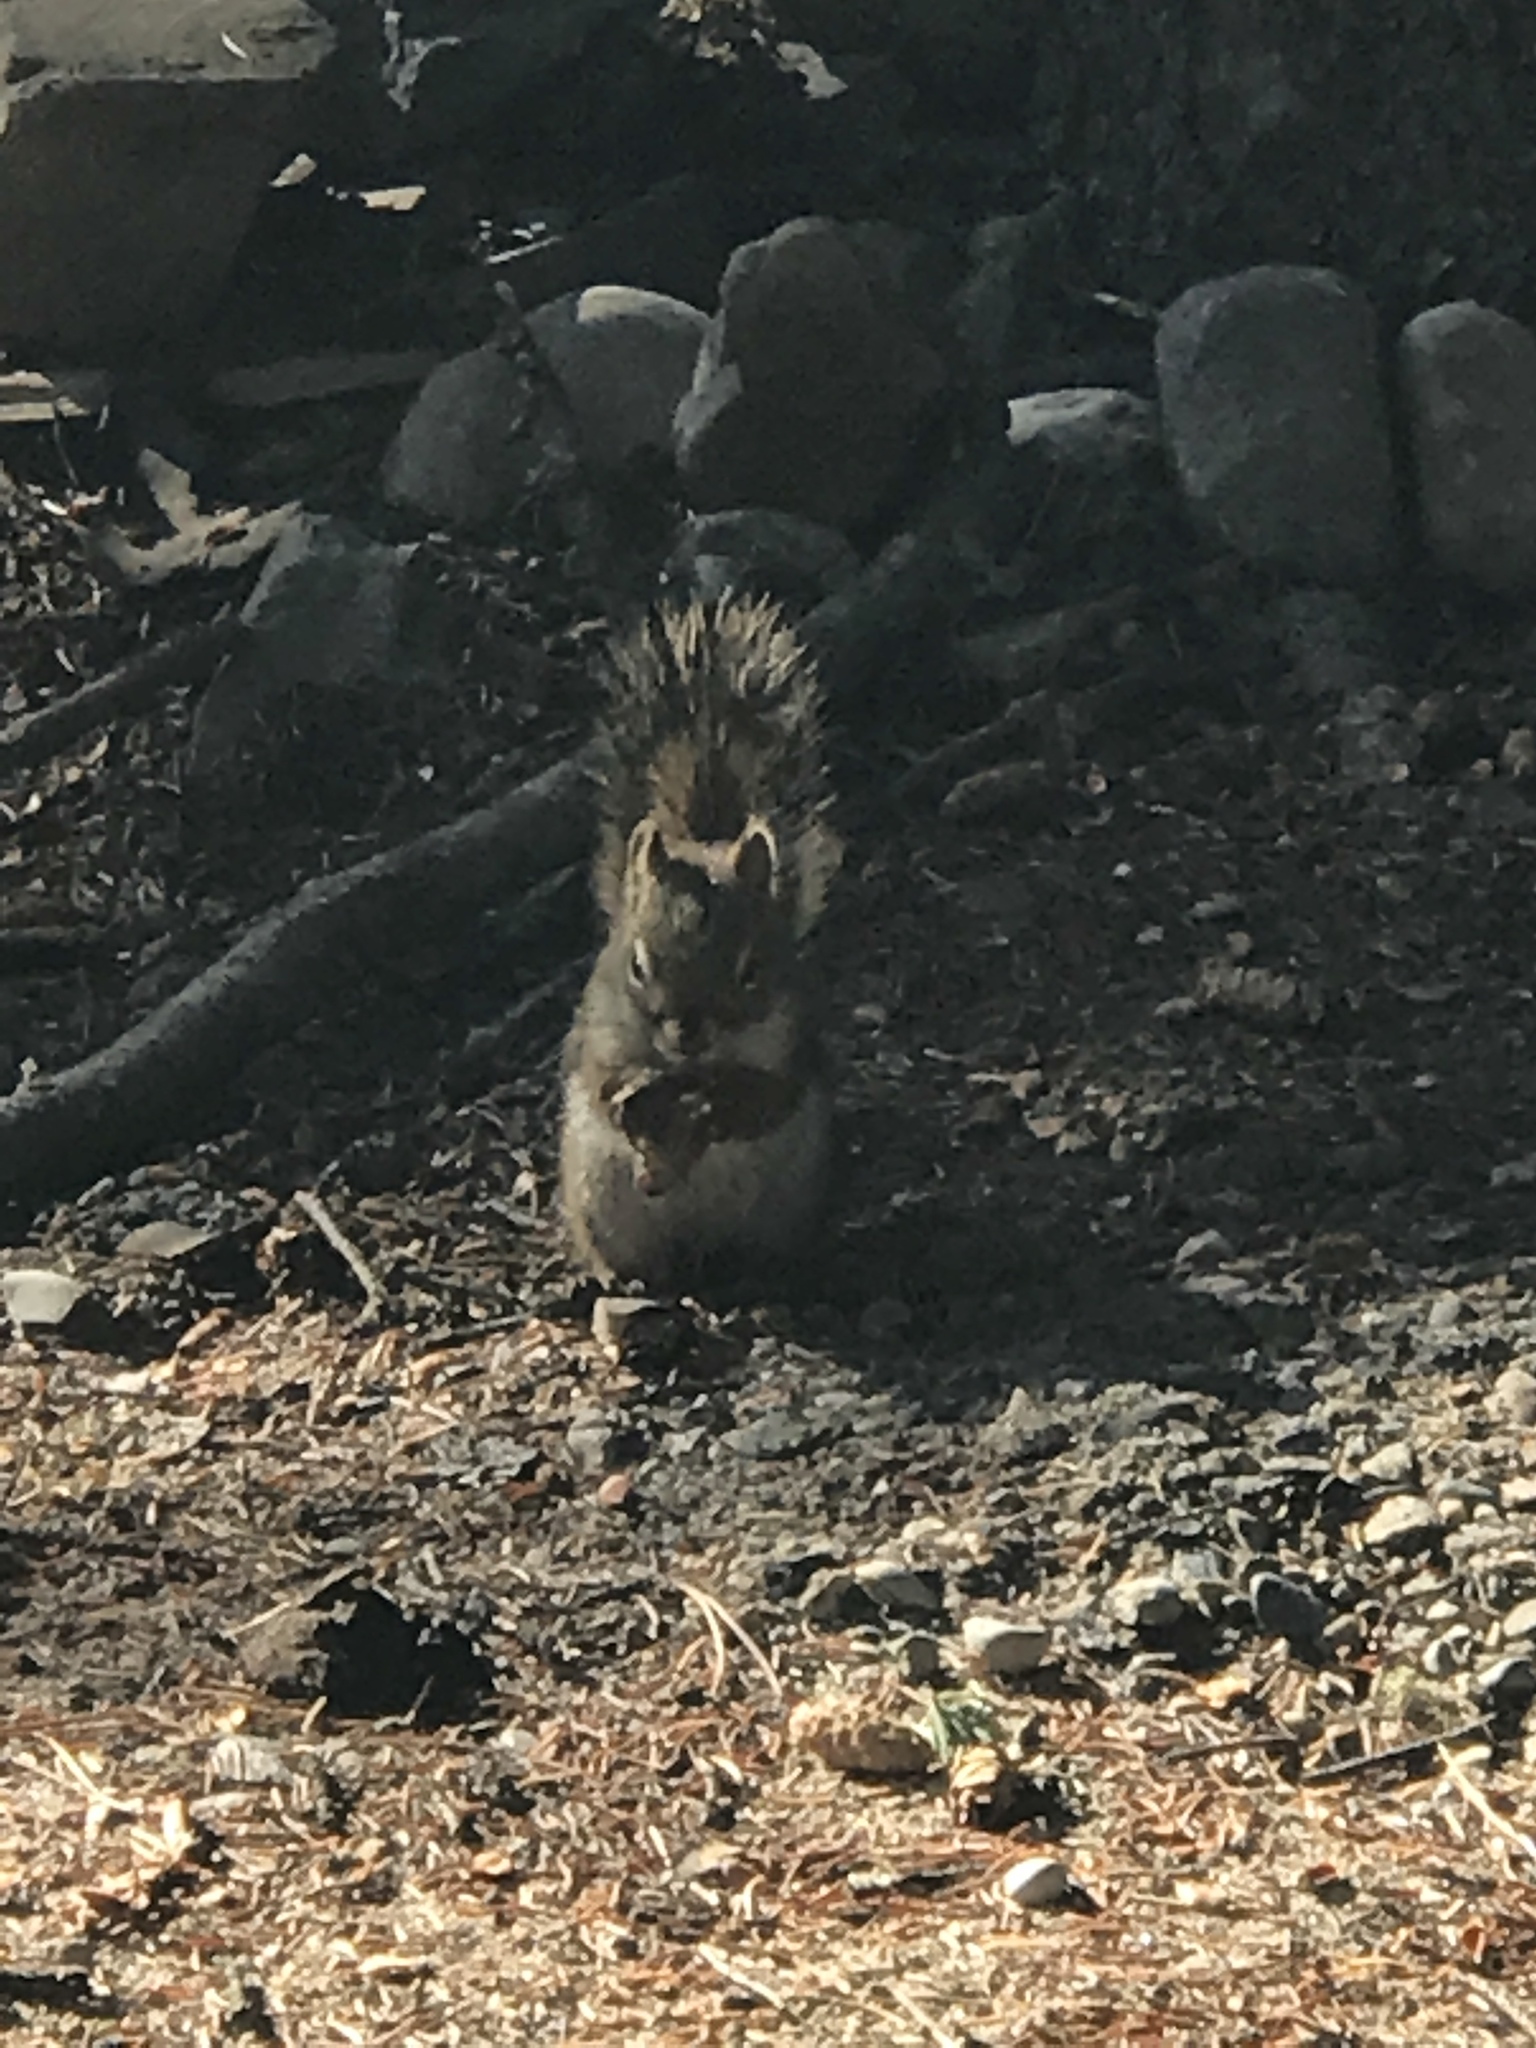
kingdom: Animalia
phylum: Chordata
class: Mammalia
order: Rodentia
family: Sciuridae
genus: Tamiasciurus
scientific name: Tamiasciurus hudsonicus
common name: Red squirrel
